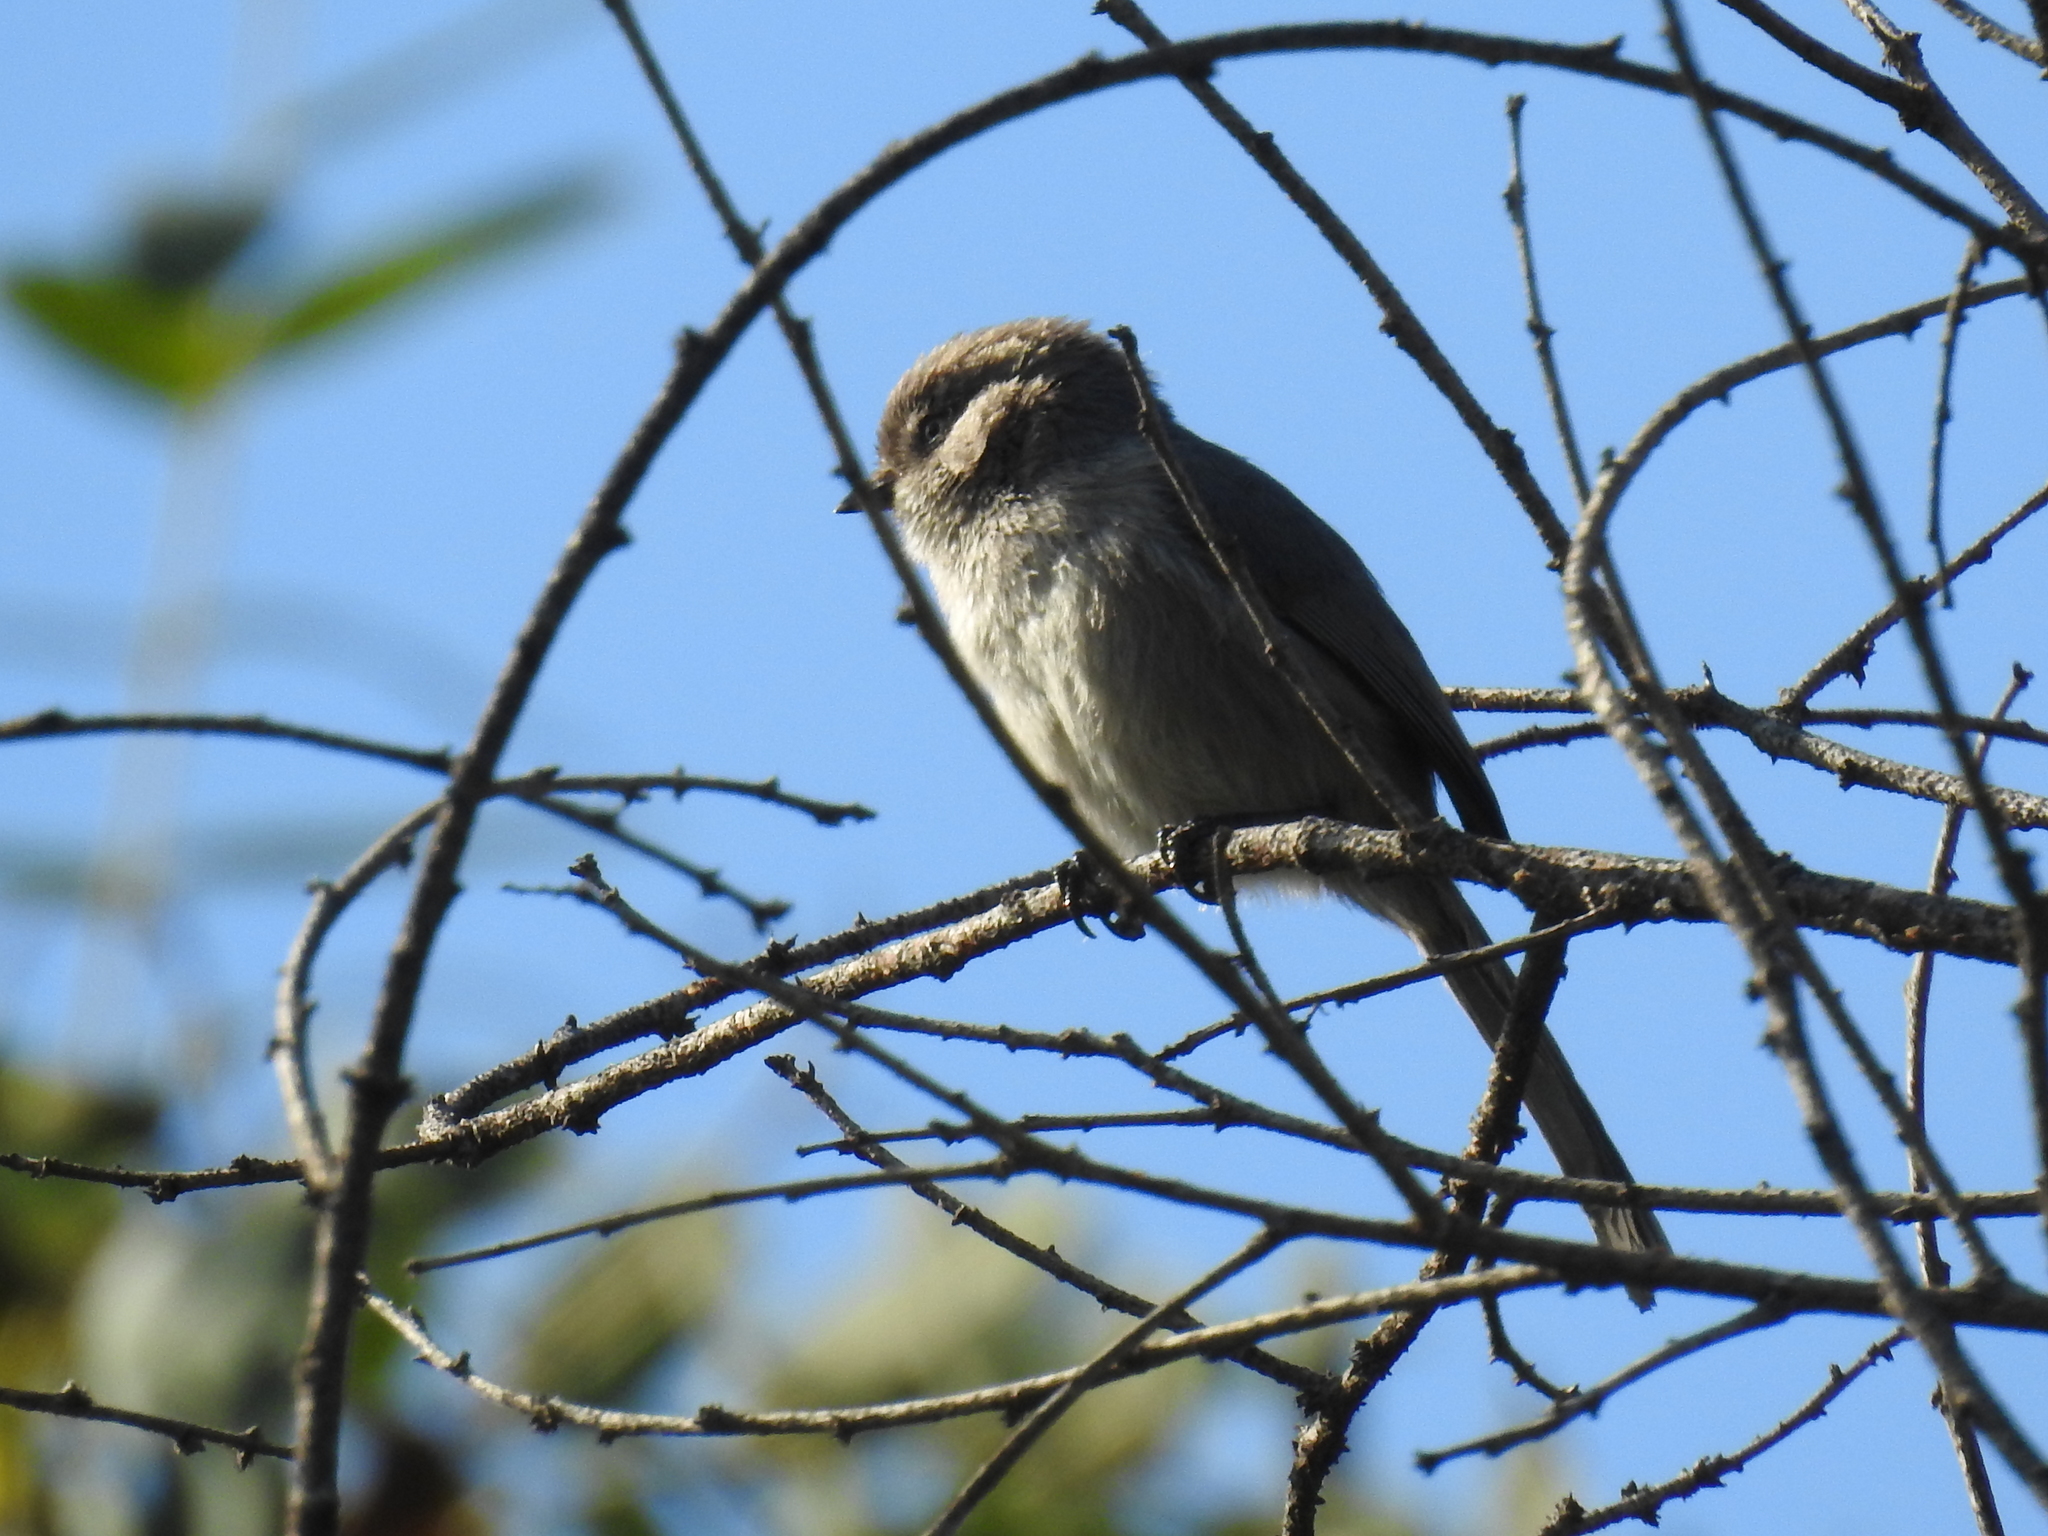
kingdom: Animalia
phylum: Chordata
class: Aves
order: Passeriformes
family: Aegithalidae
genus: Psaltriparus
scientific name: Psaltriparus minimus
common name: American bushtit
